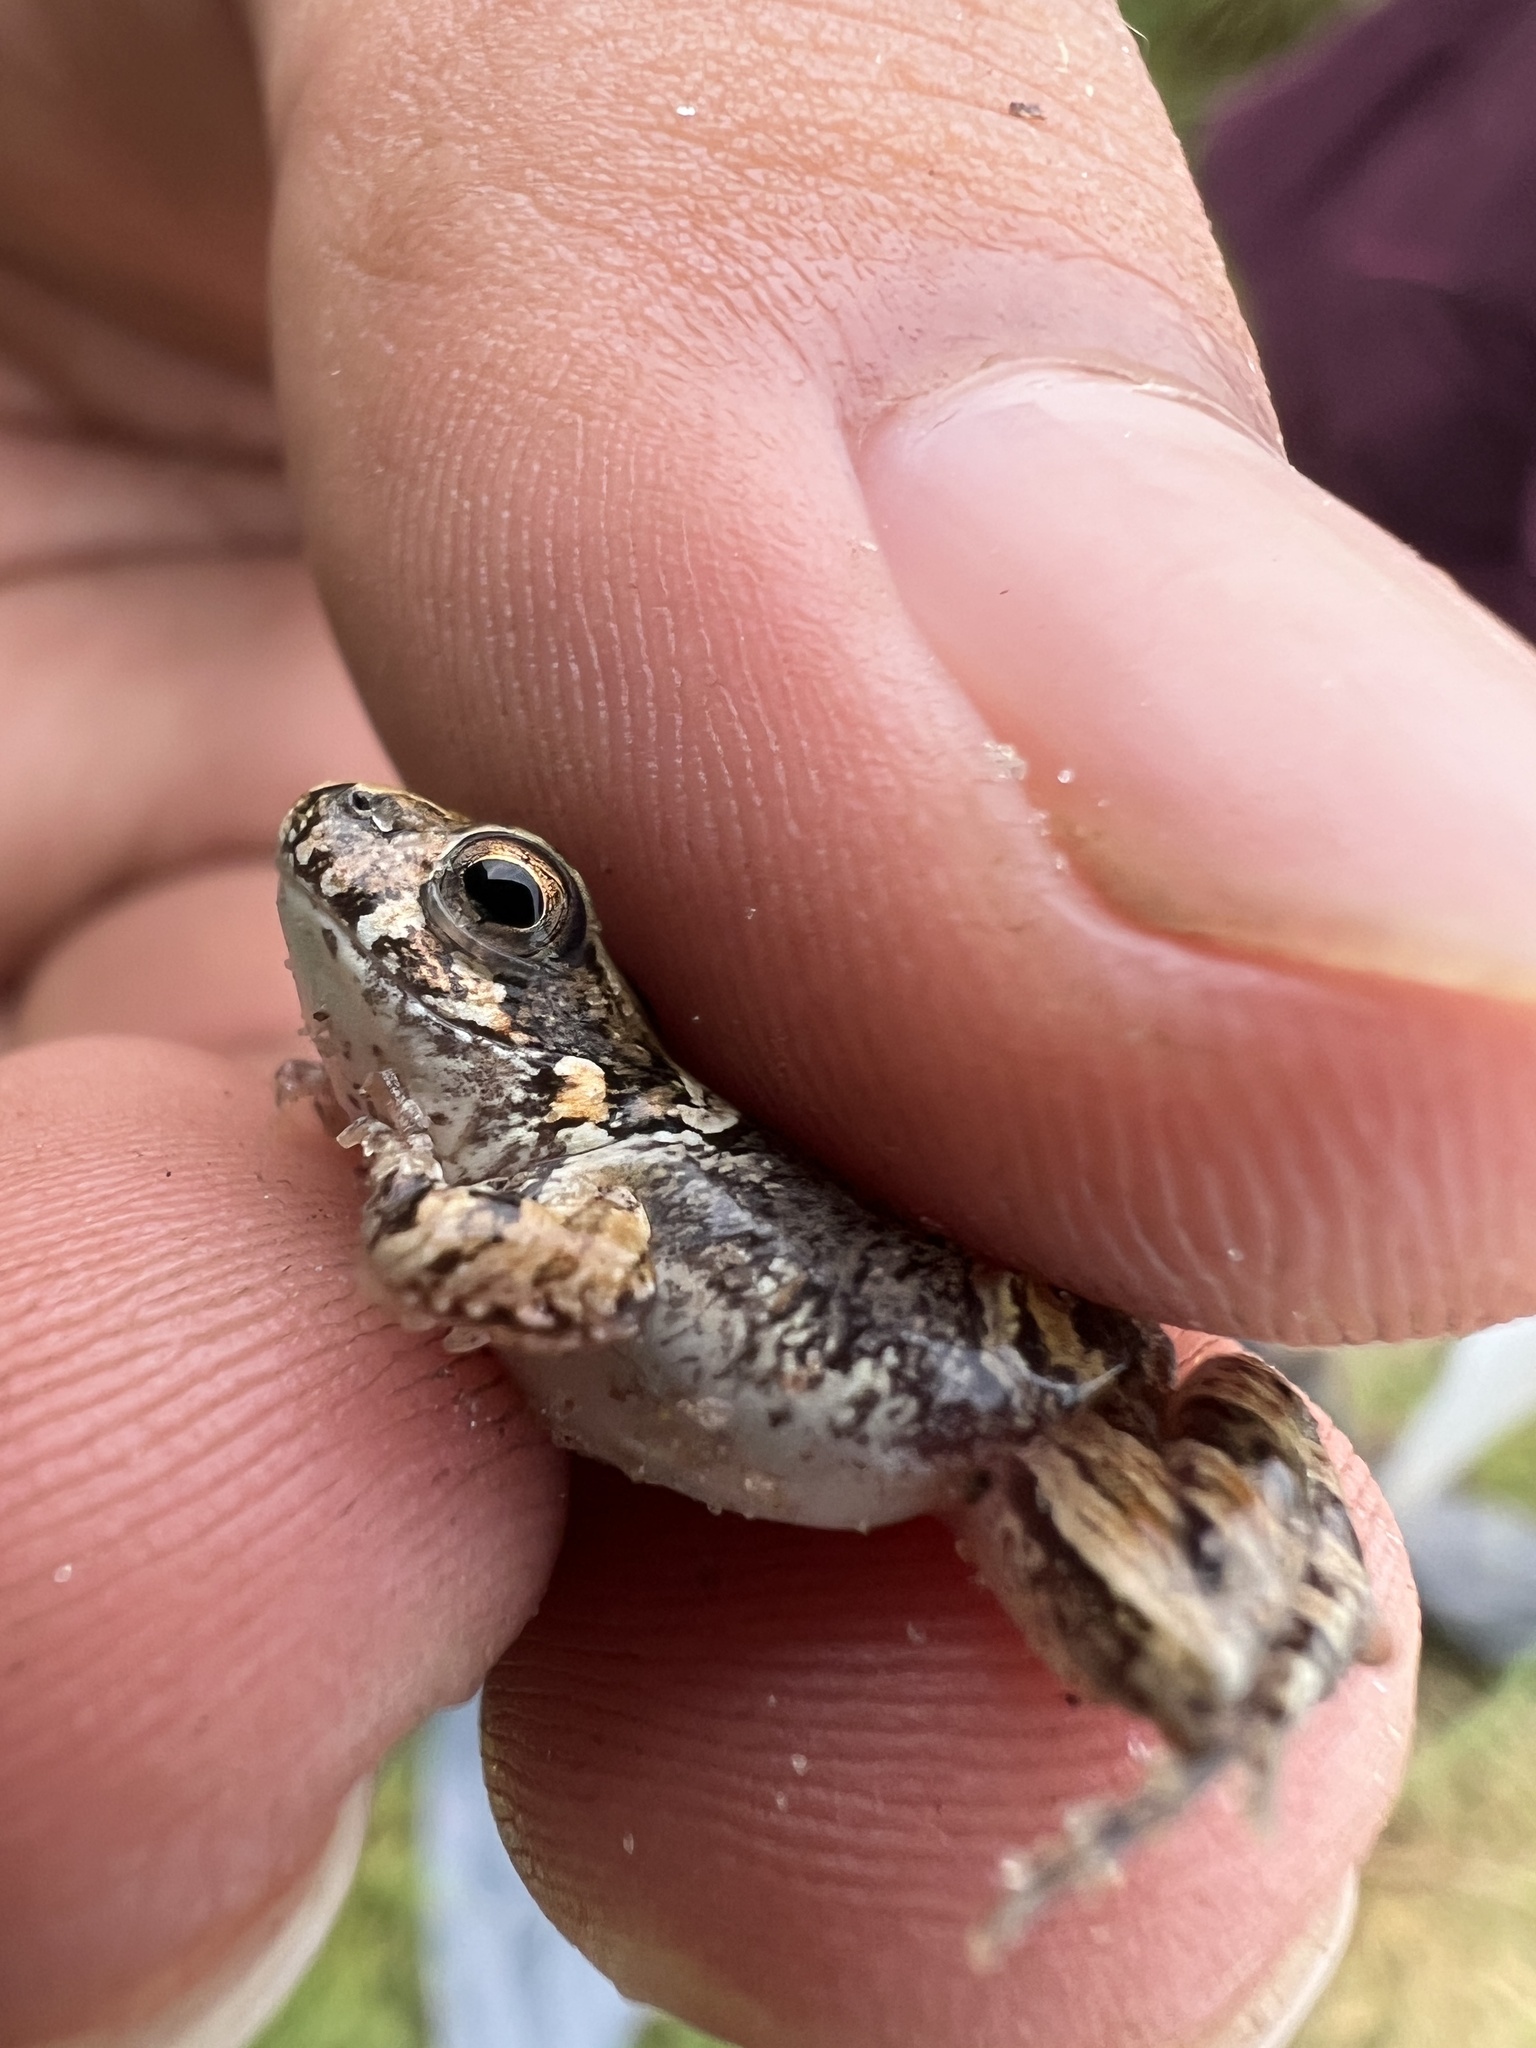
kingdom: Animalia
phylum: Chordata
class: Amphibia
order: Anura
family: Leptodactylidae
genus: Physalaemus
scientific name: Physalaemus biligonigerus
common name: Weeping frog
